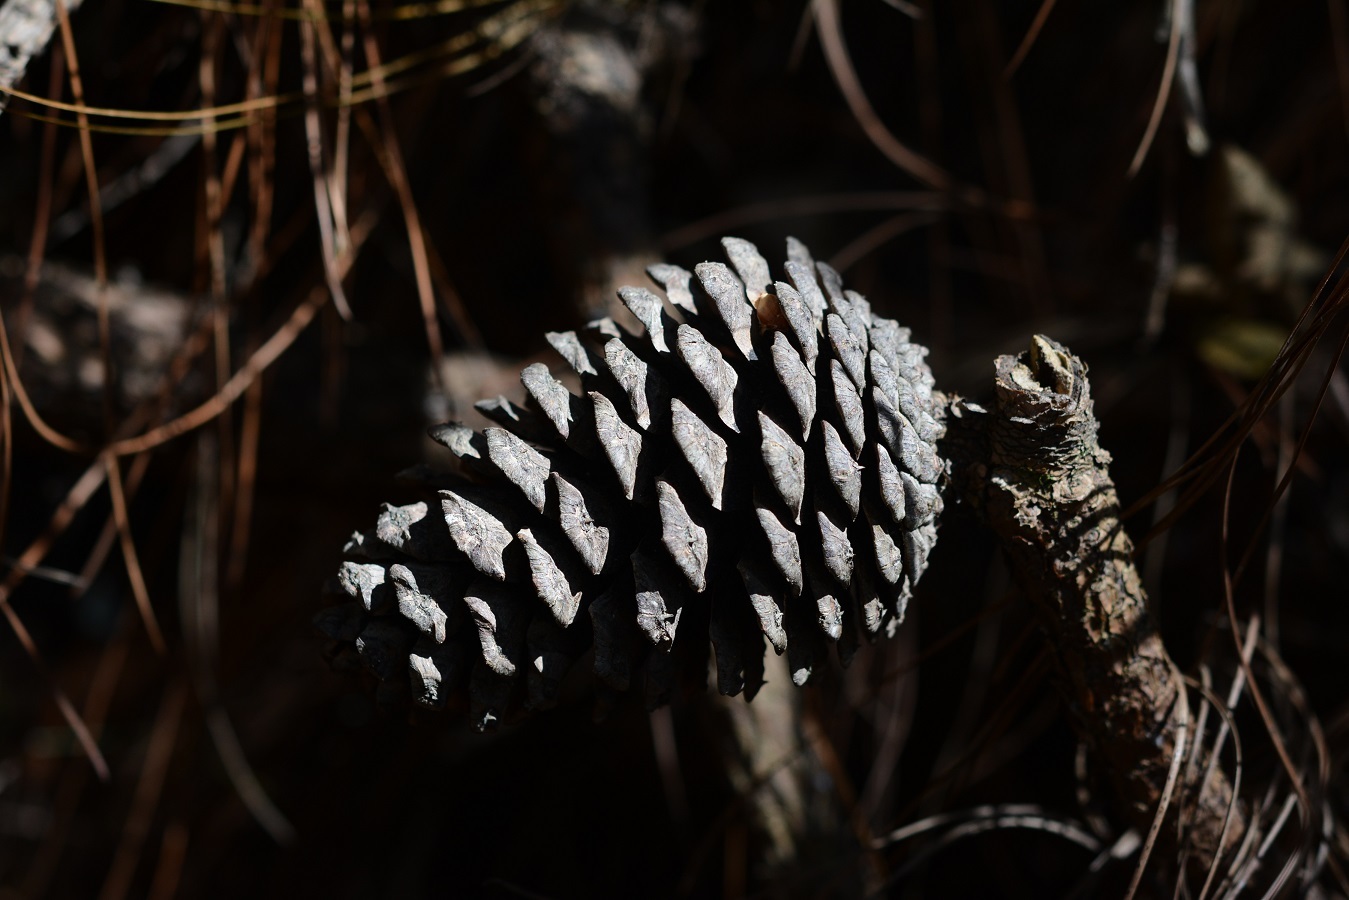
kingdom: Plantae
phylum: Tracheophyta
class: Pinopsida
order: Pinales
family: Pinaceae
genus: Pinus
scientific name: Pinus montezumae
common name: Montezuma pine
